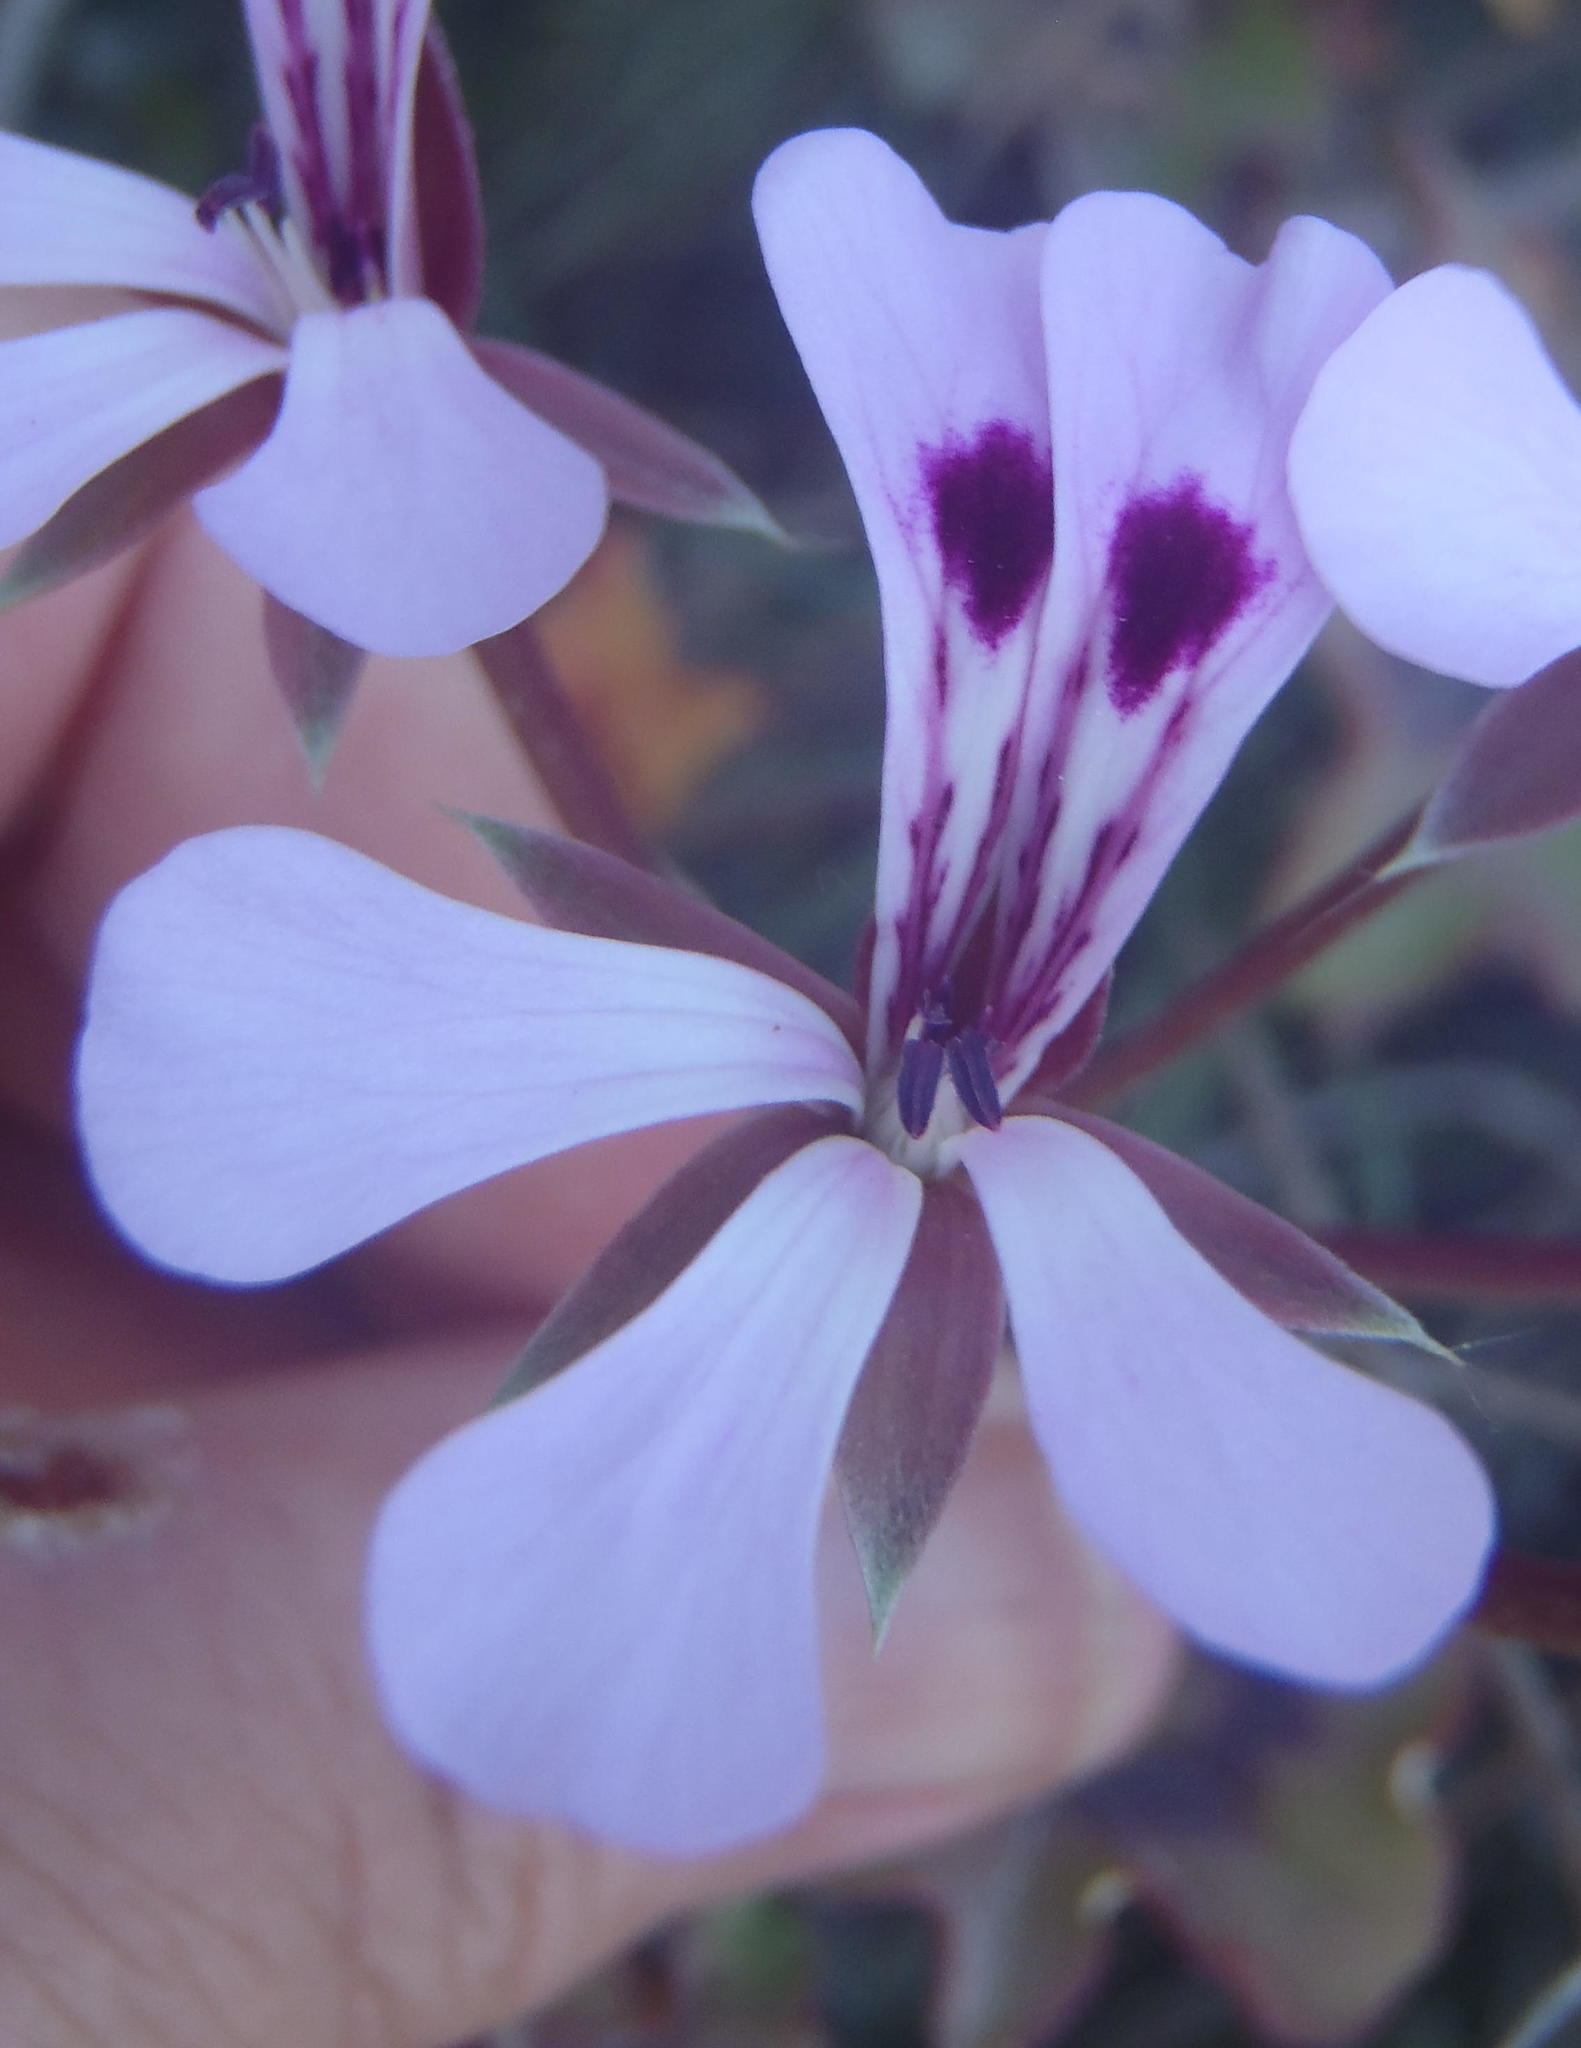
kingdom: Plantae
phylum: Tracheophyta
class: Magnoliopsida
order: Geraniales
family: Geraniaceae
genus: Pelargonium
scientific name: Pelargonium peltatum
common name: Ivyleaf geranium
